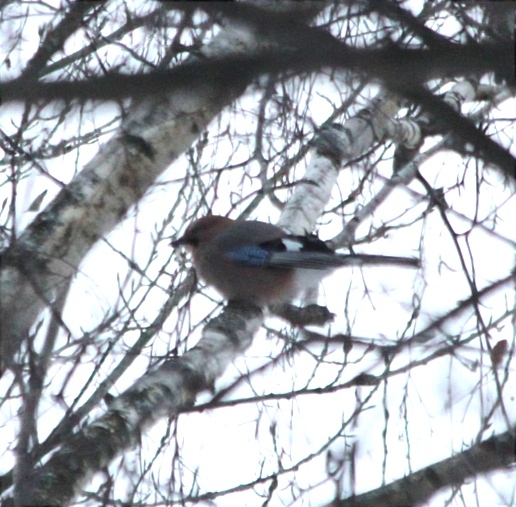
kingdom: Animalia
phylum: Chordata
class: Aves
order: Passeriformes
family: Corvidae
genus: Garrulus
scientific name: Garrulus glandarius
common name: Eurasian jay
